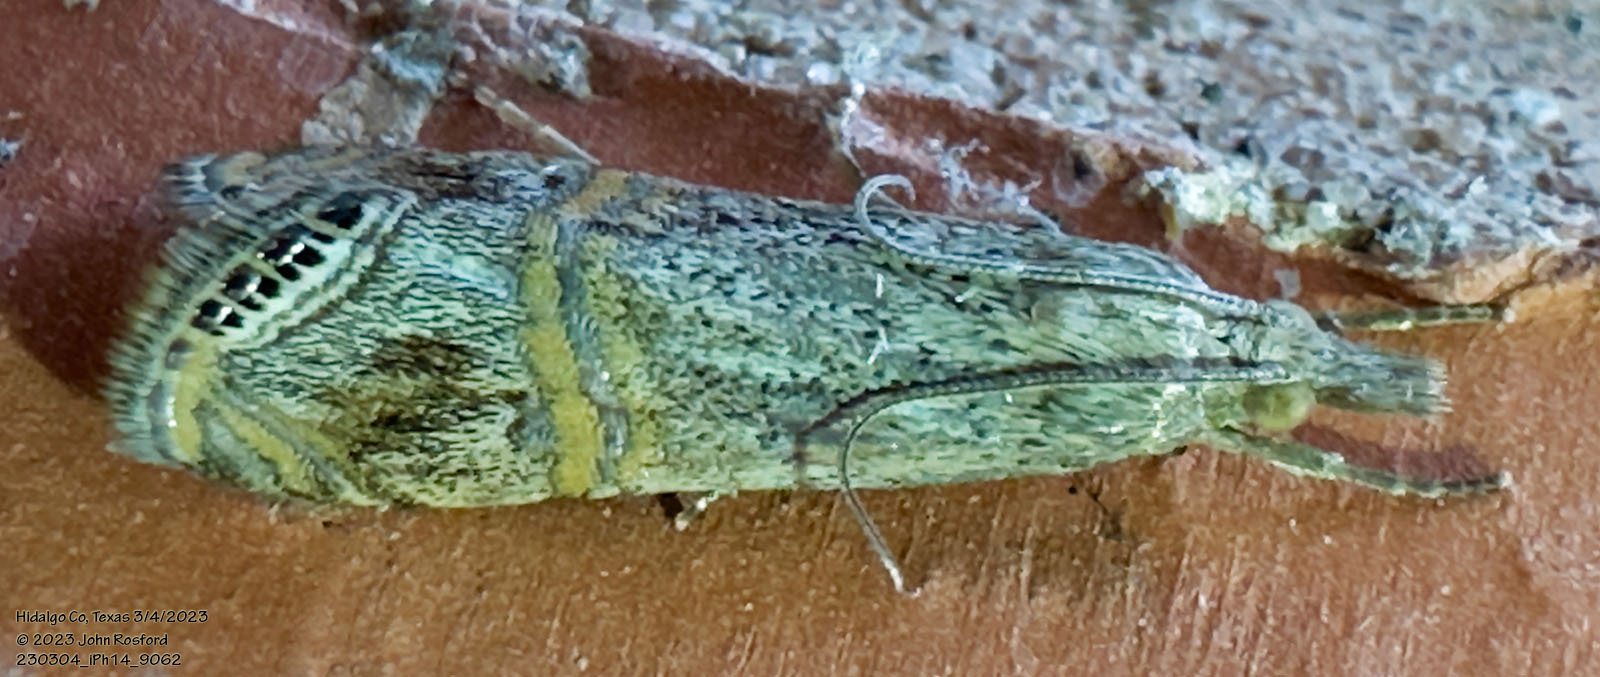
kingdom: Animalia
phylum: Arthropoda
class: Insecta
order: Lepidoptera
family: Crambidae
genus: Euchromius
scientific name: Euchromius ocellea
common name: Necklace veneer moth
